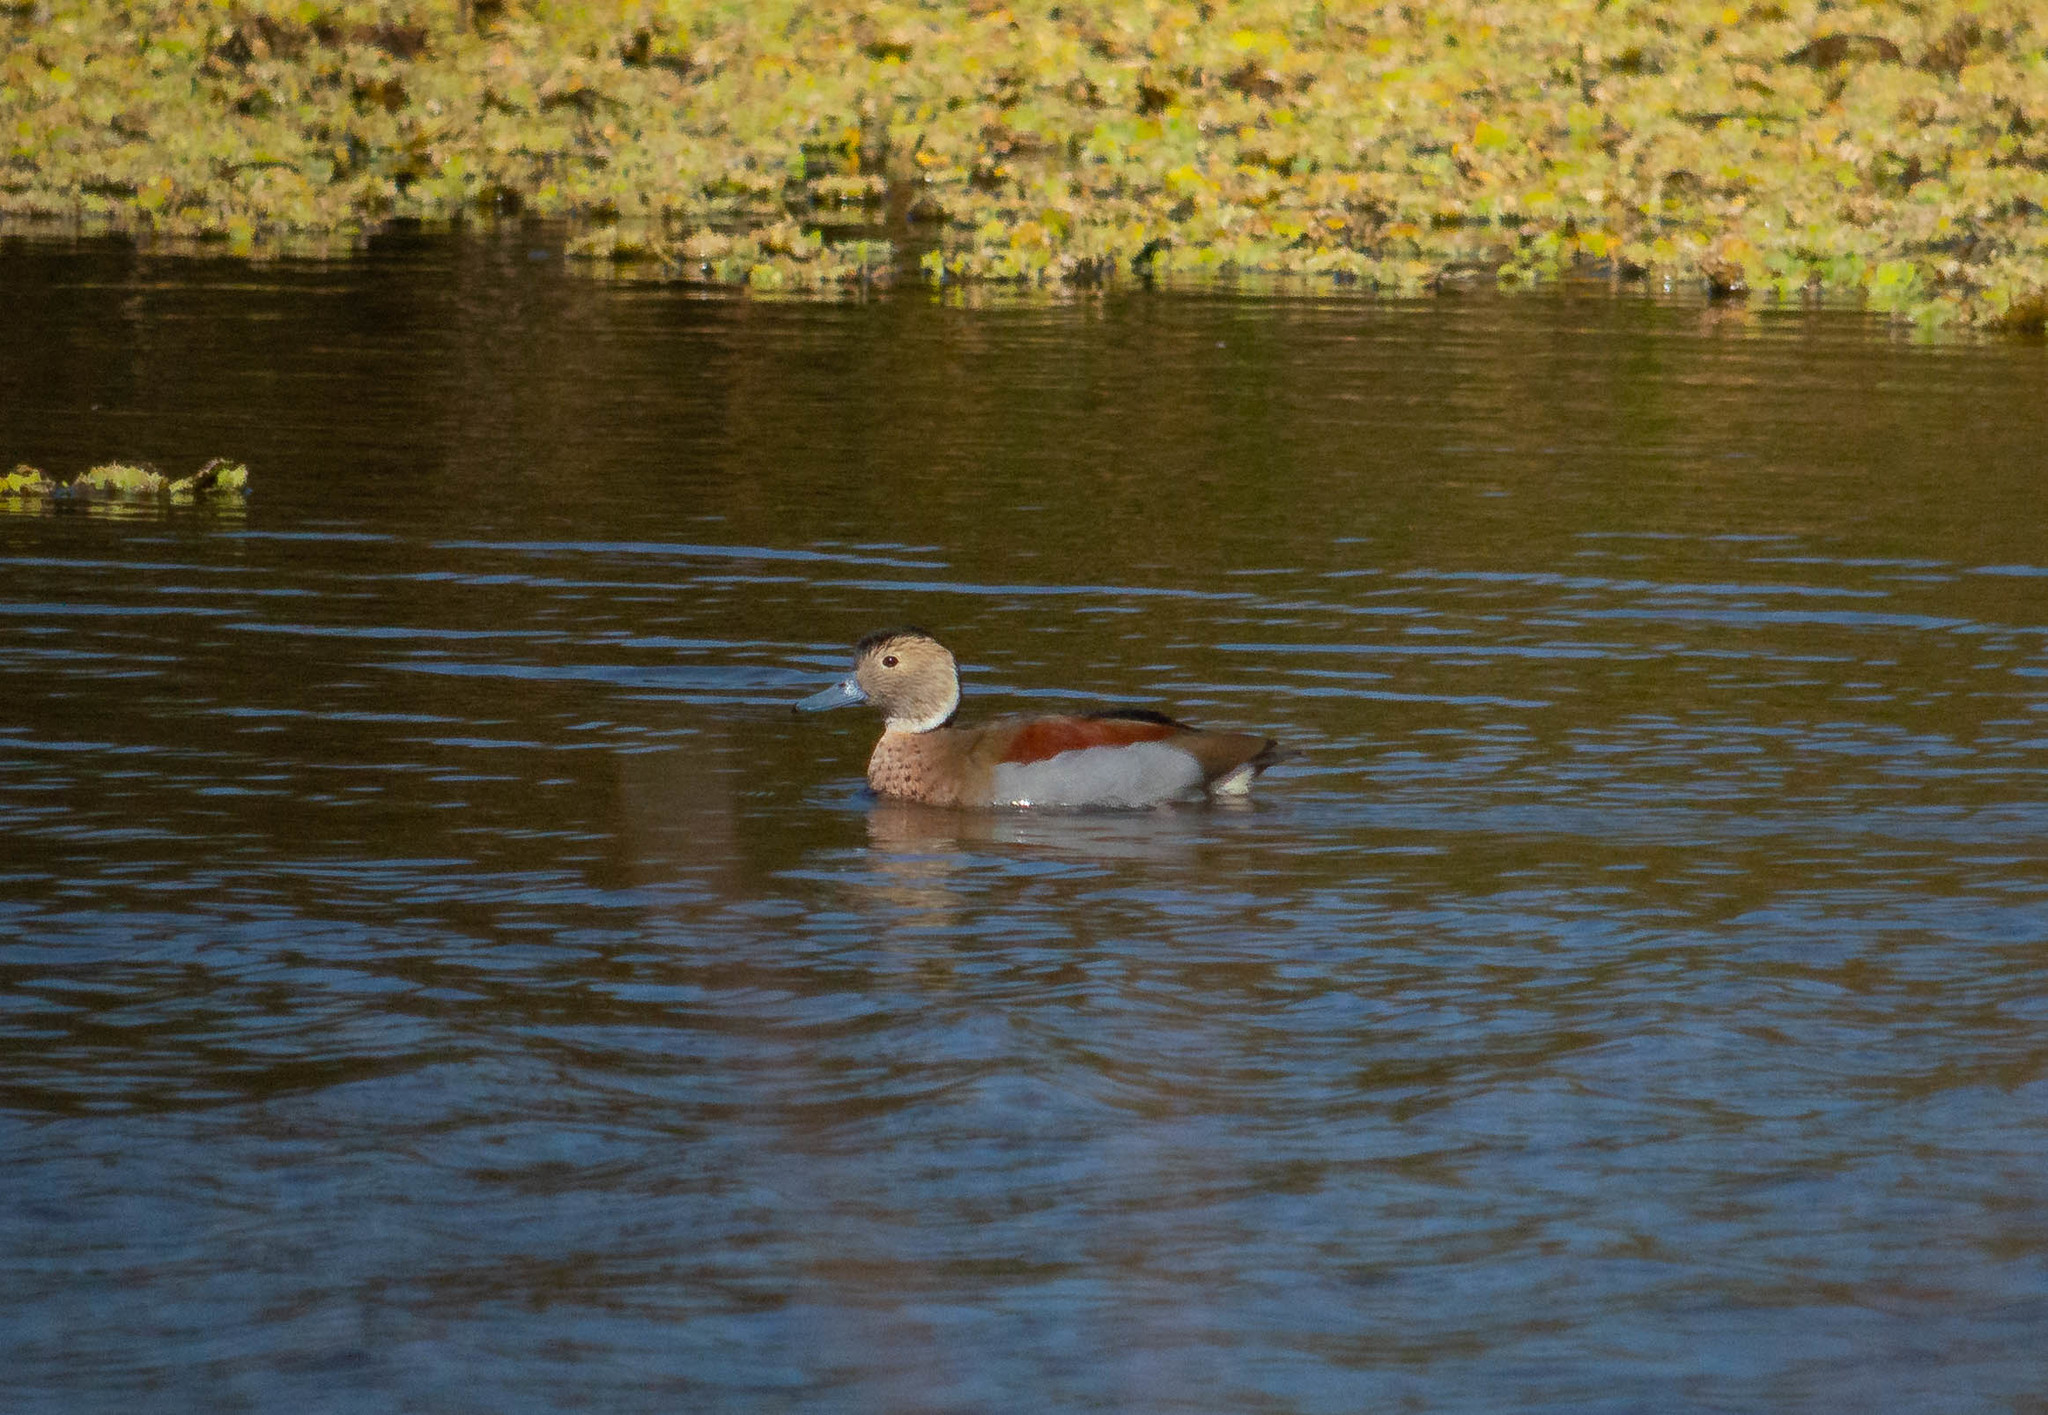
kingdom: Animalia
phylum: Chordata
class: Aves
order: Anseriformes
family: Anatidae
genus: Callonetta
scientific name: Callonetta leucophrys
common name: Ringed teal
